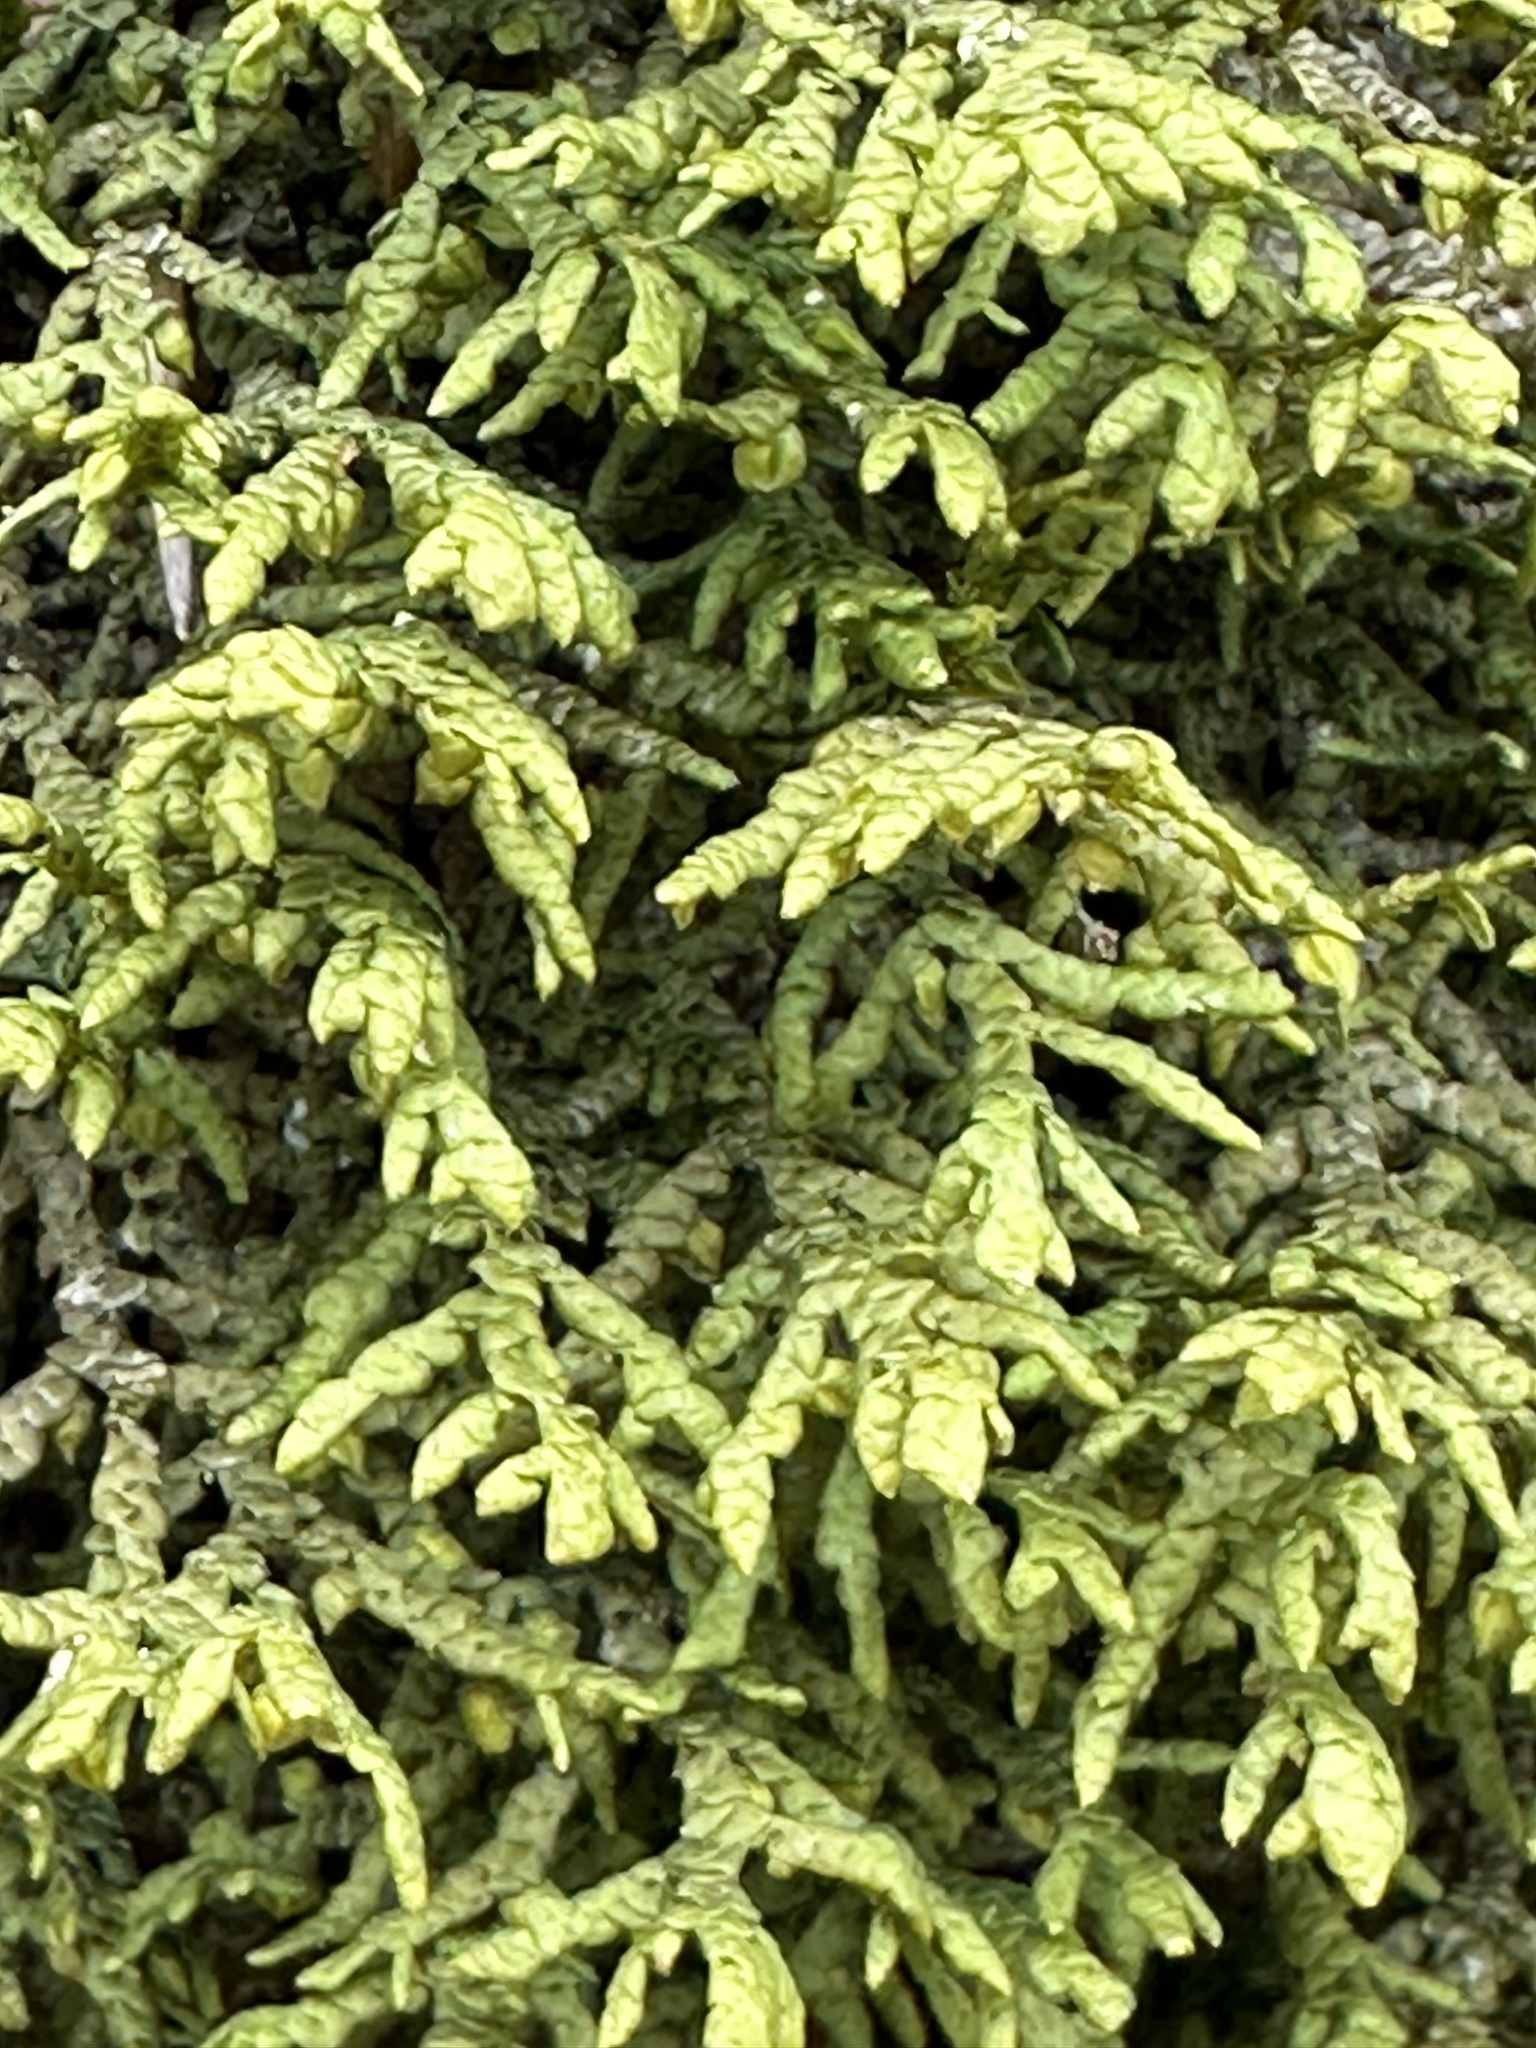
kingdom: Plantae
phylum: Marchantiophyta
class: Jungermanniopsida
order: Porellales
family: Porellaceae
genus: Porella
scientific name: Porella platyphylla
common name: Wall scalewort
